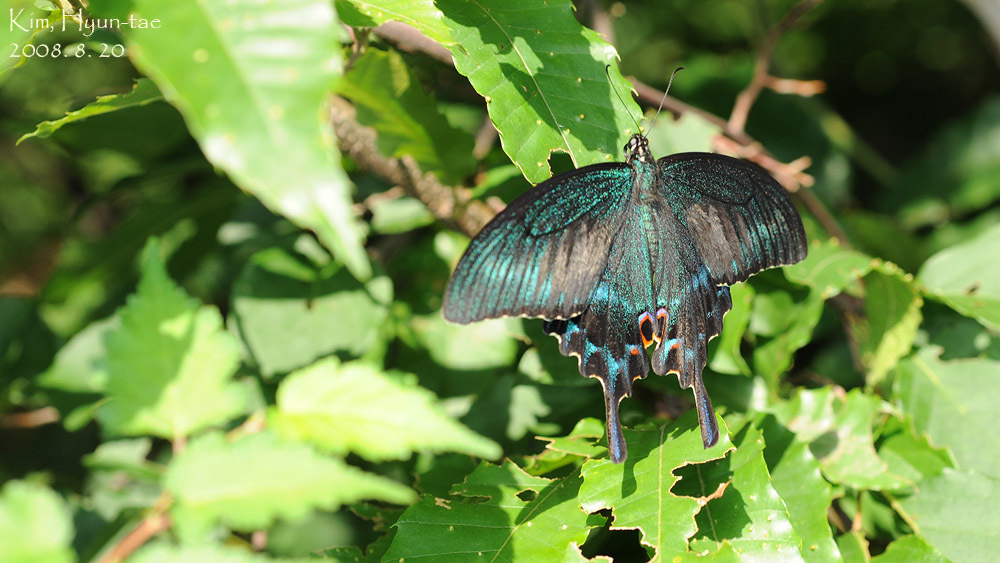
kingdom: Animalia
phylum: Arthropoda
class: Insecta
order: Lepidoptera
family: Papilionidae
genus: Papilio
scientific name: Papilio maackii
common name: Alpine black swallowtail
